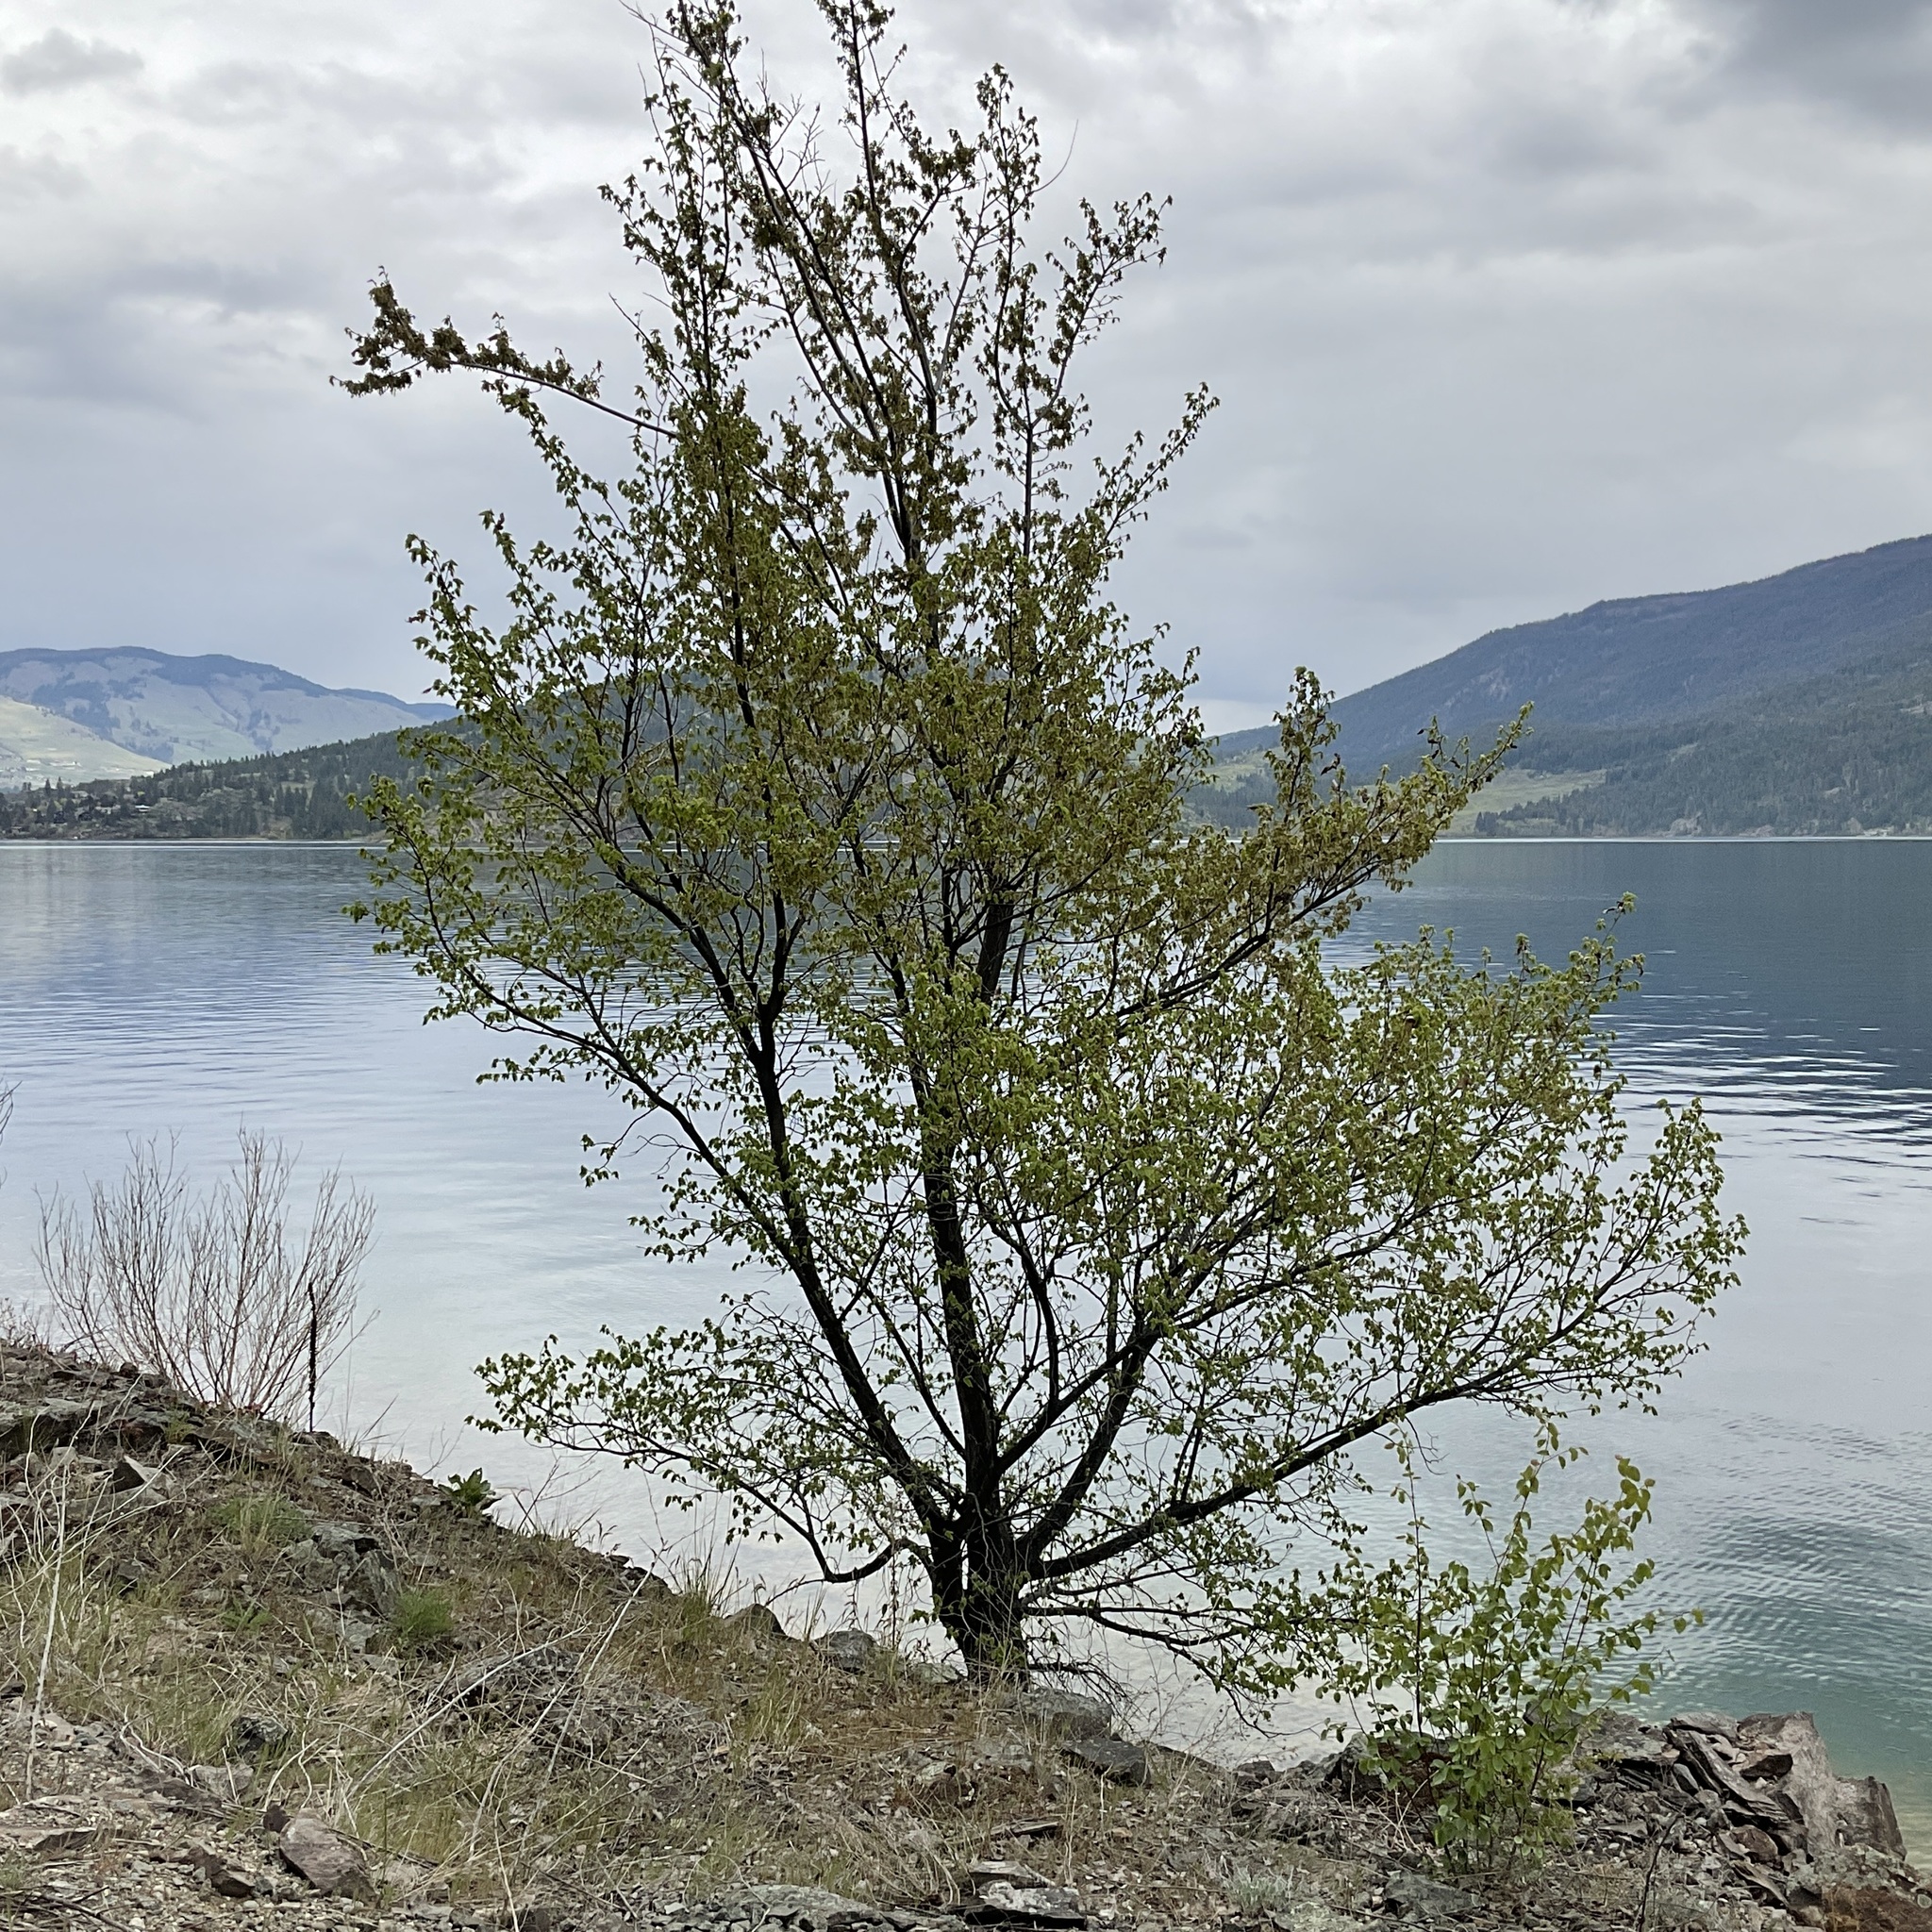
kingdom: Plantae
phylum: Tracheophyta
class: Magnoliopsida
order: Rosales
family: Ulmaceae
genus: Ulmus
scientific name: Ulmus americana
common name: American elm
